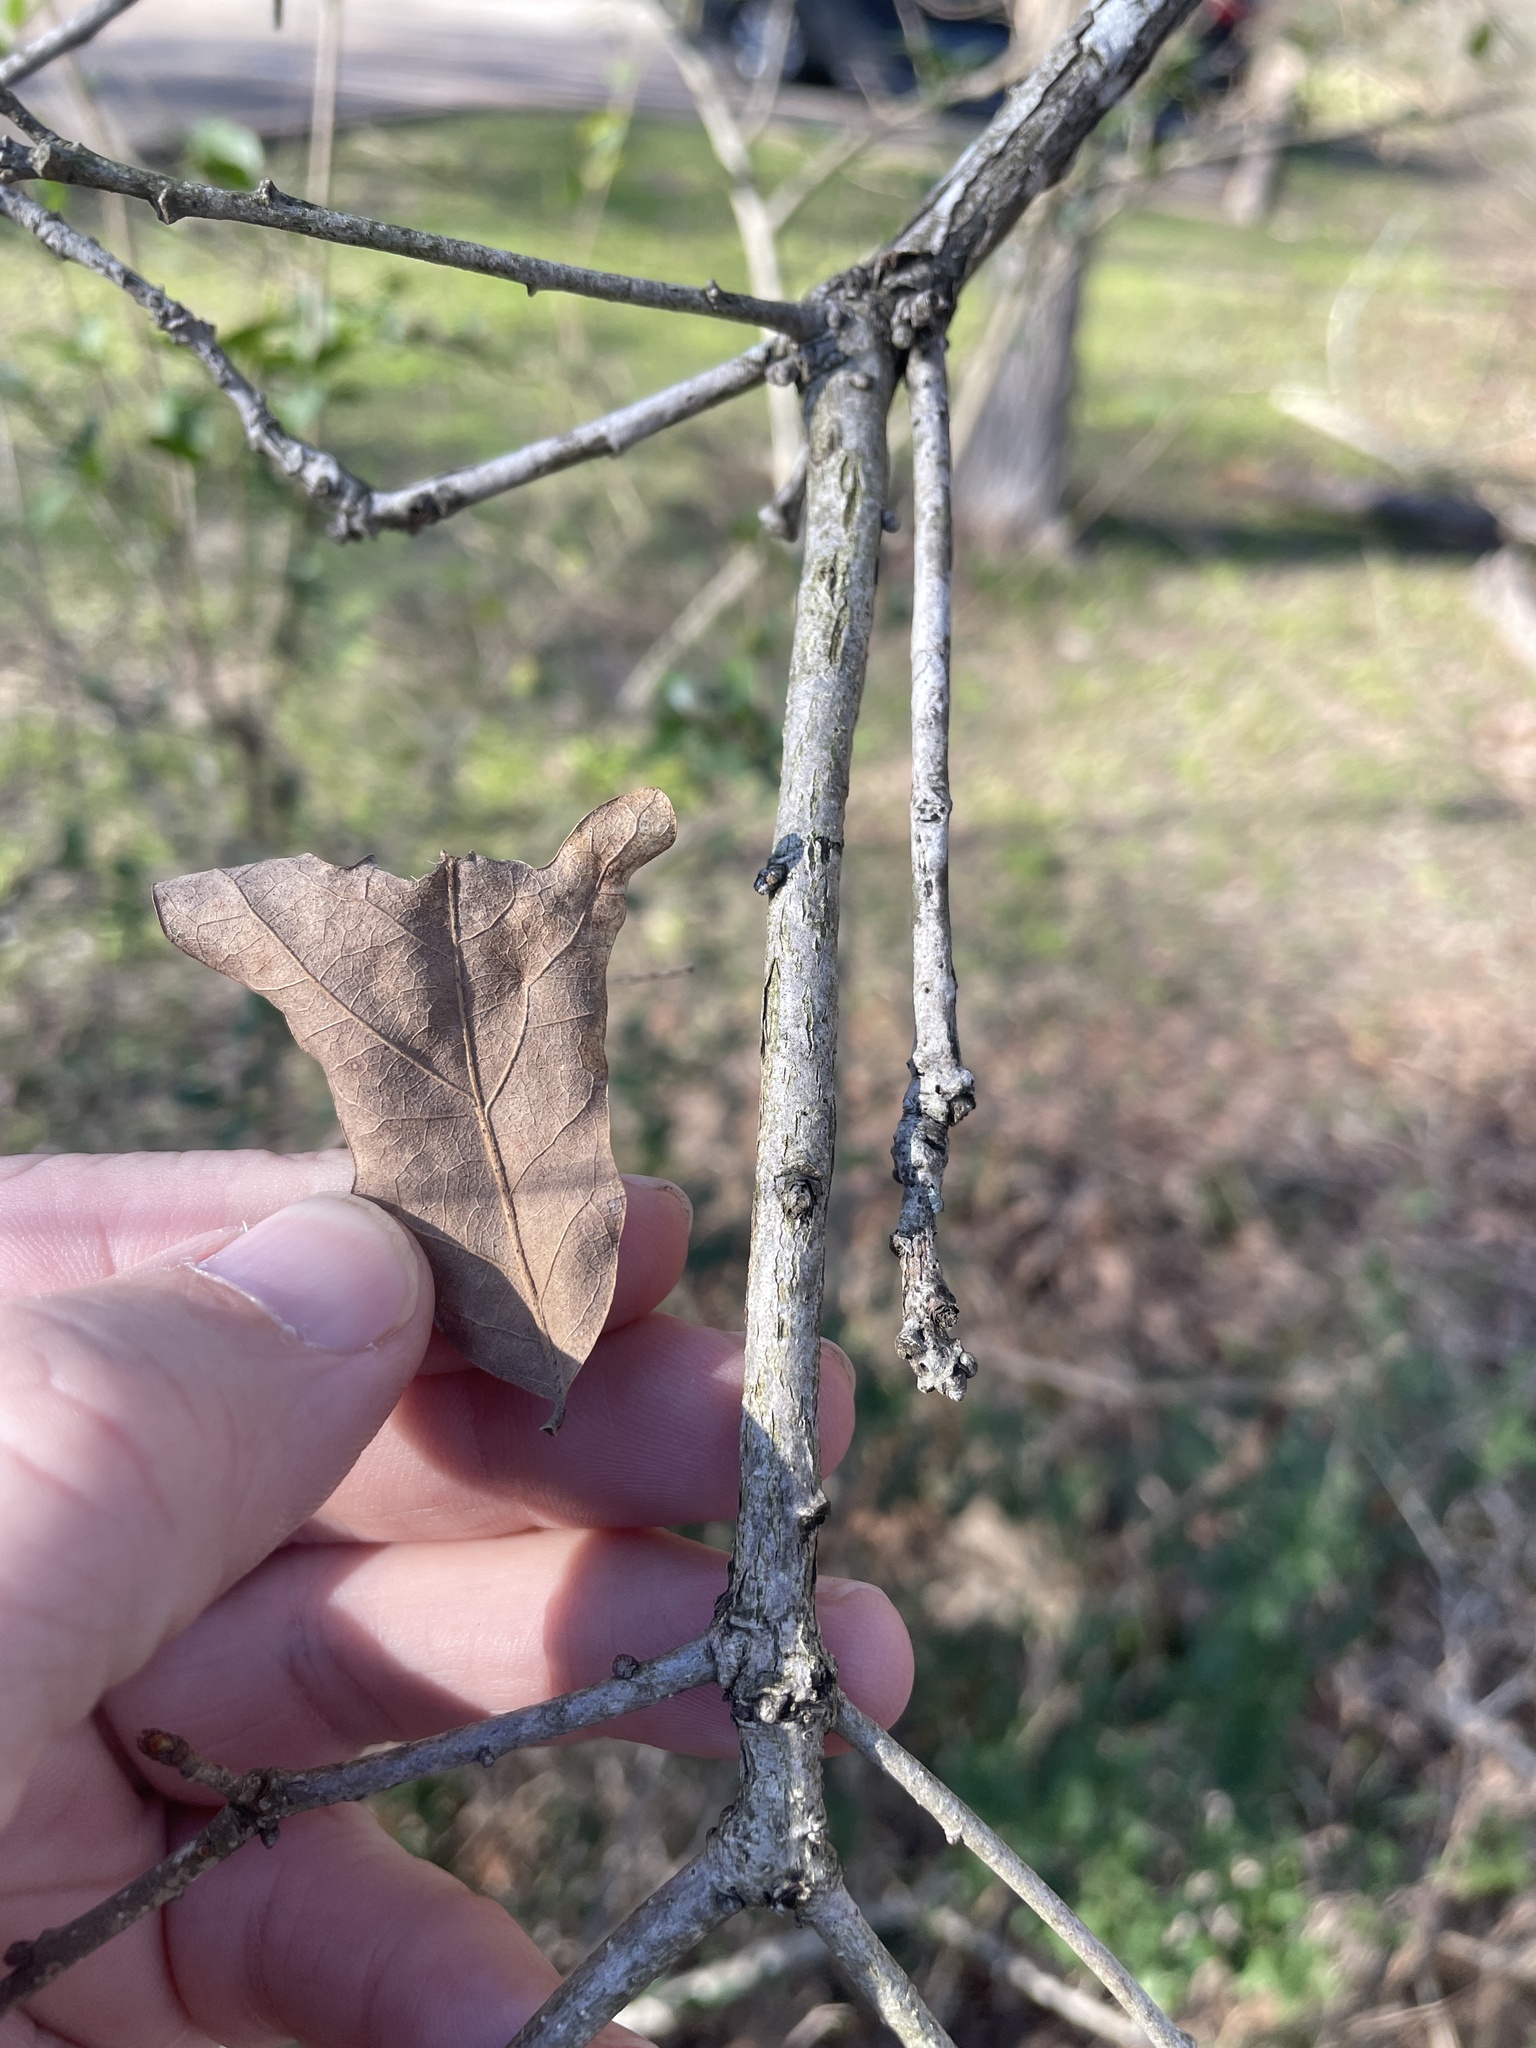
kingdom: Plantae
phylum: Tracheophyta
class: Magnoliopsida
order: Fagales
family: Fagaceae
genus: Quercus
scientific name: Quercus similis
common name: Delta post oak
